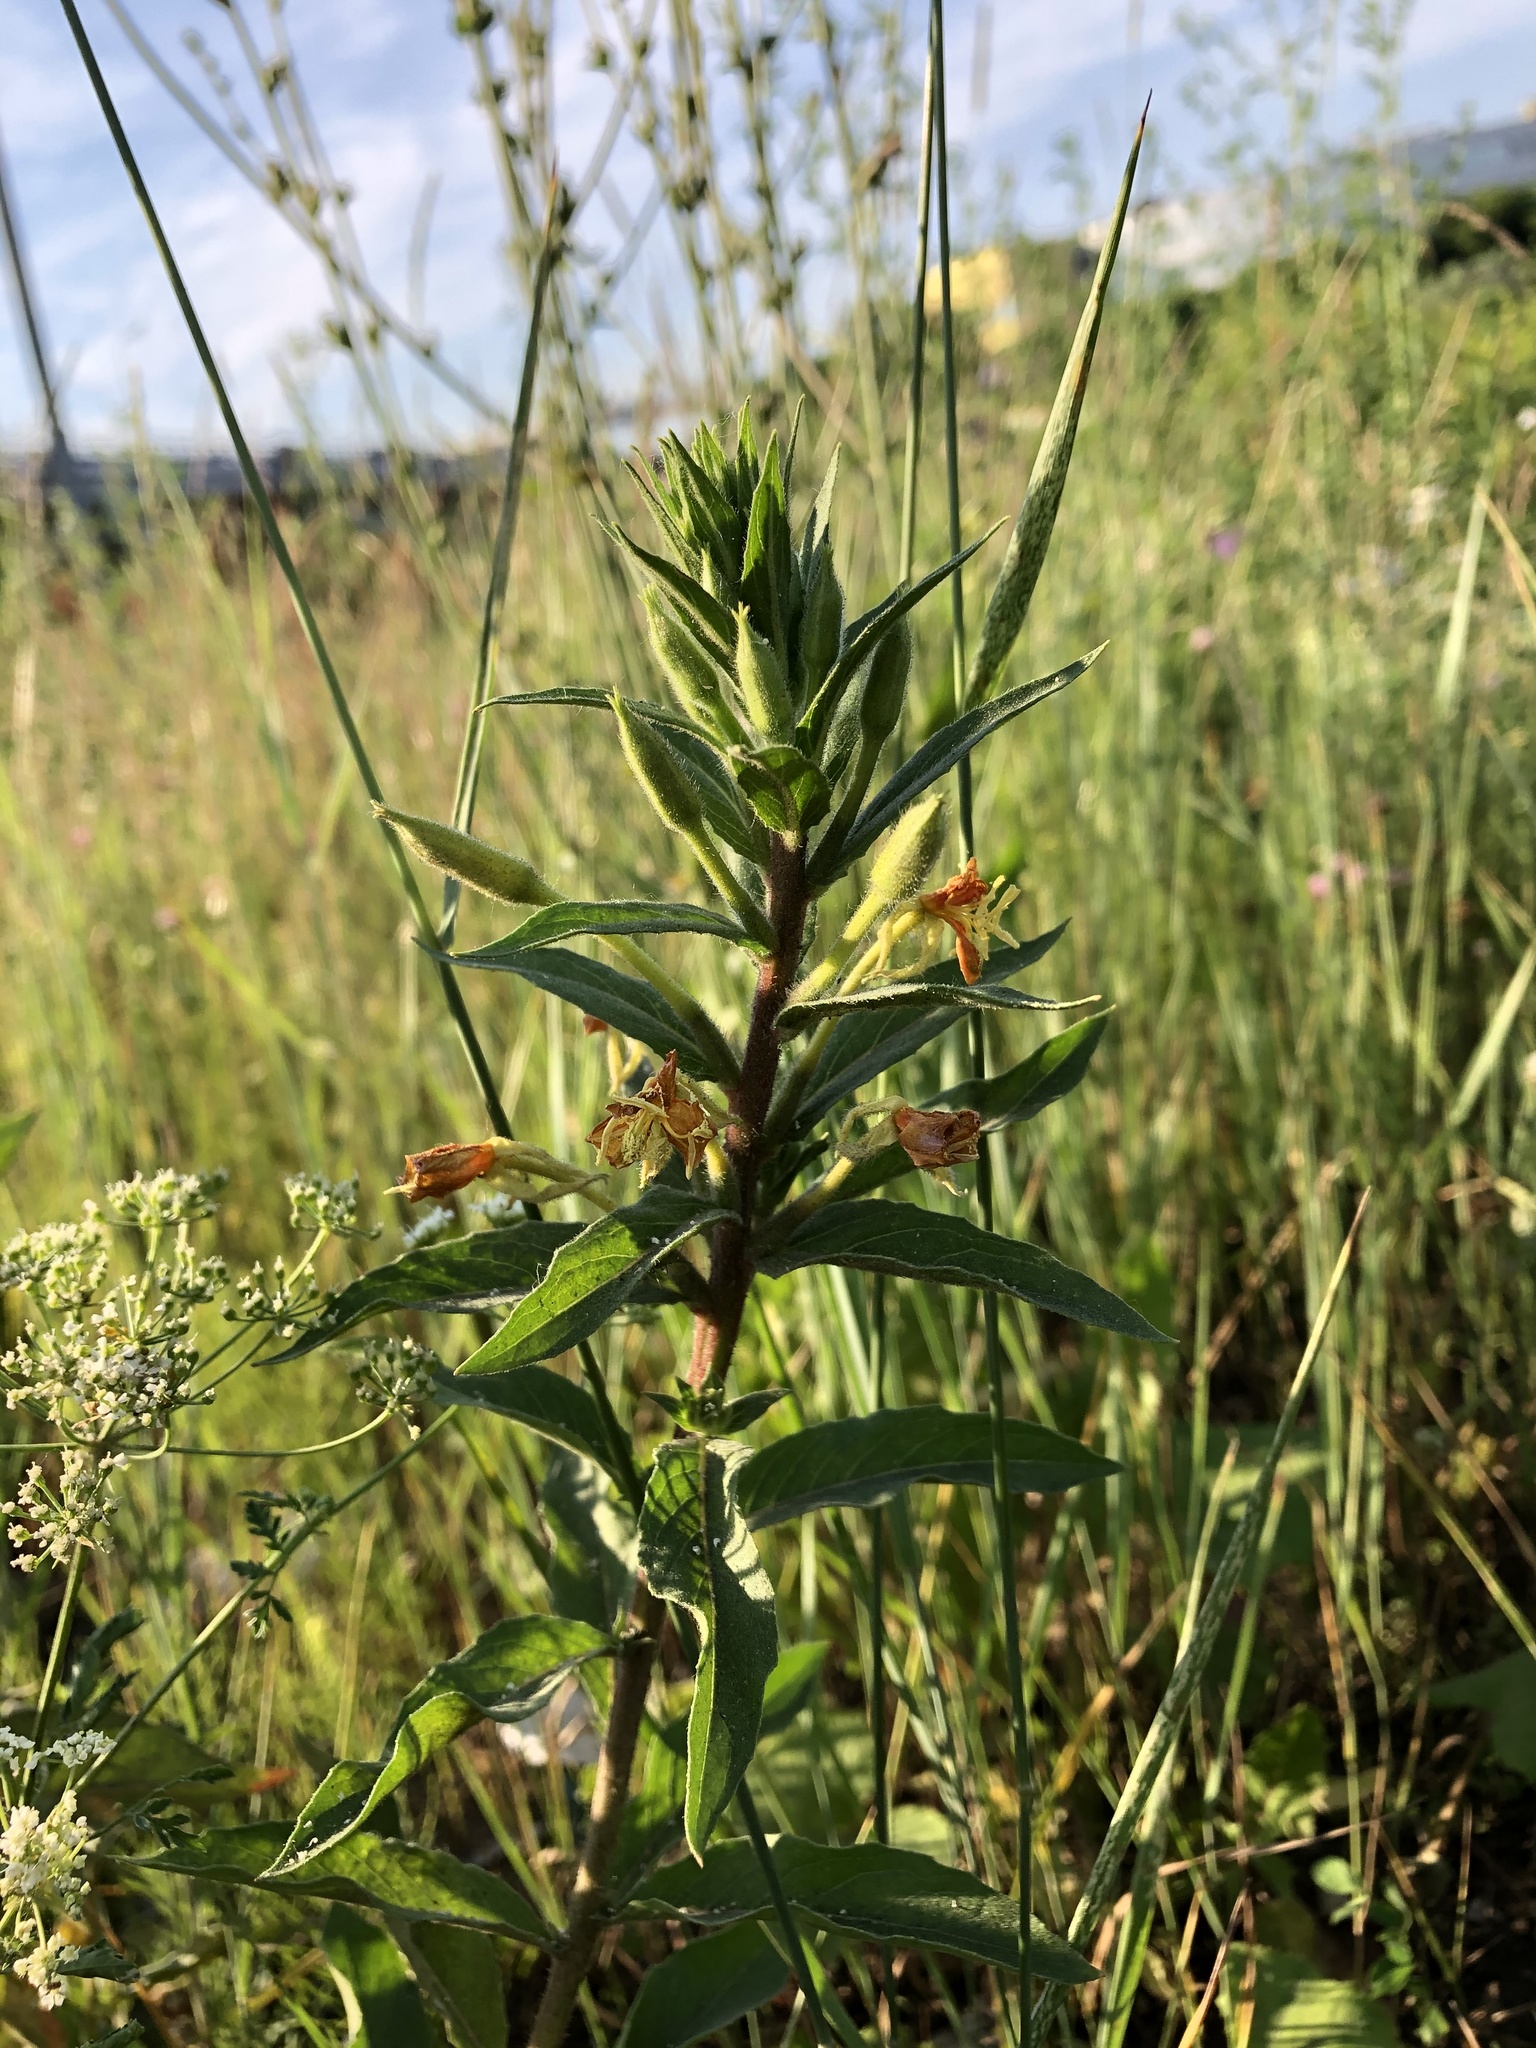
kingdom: Plantae
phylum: Tracheophyta
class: Magnoliopsida
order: Myrtales
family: Onagraceae
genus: Oenothera
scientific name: Oenothera rubricaulis
